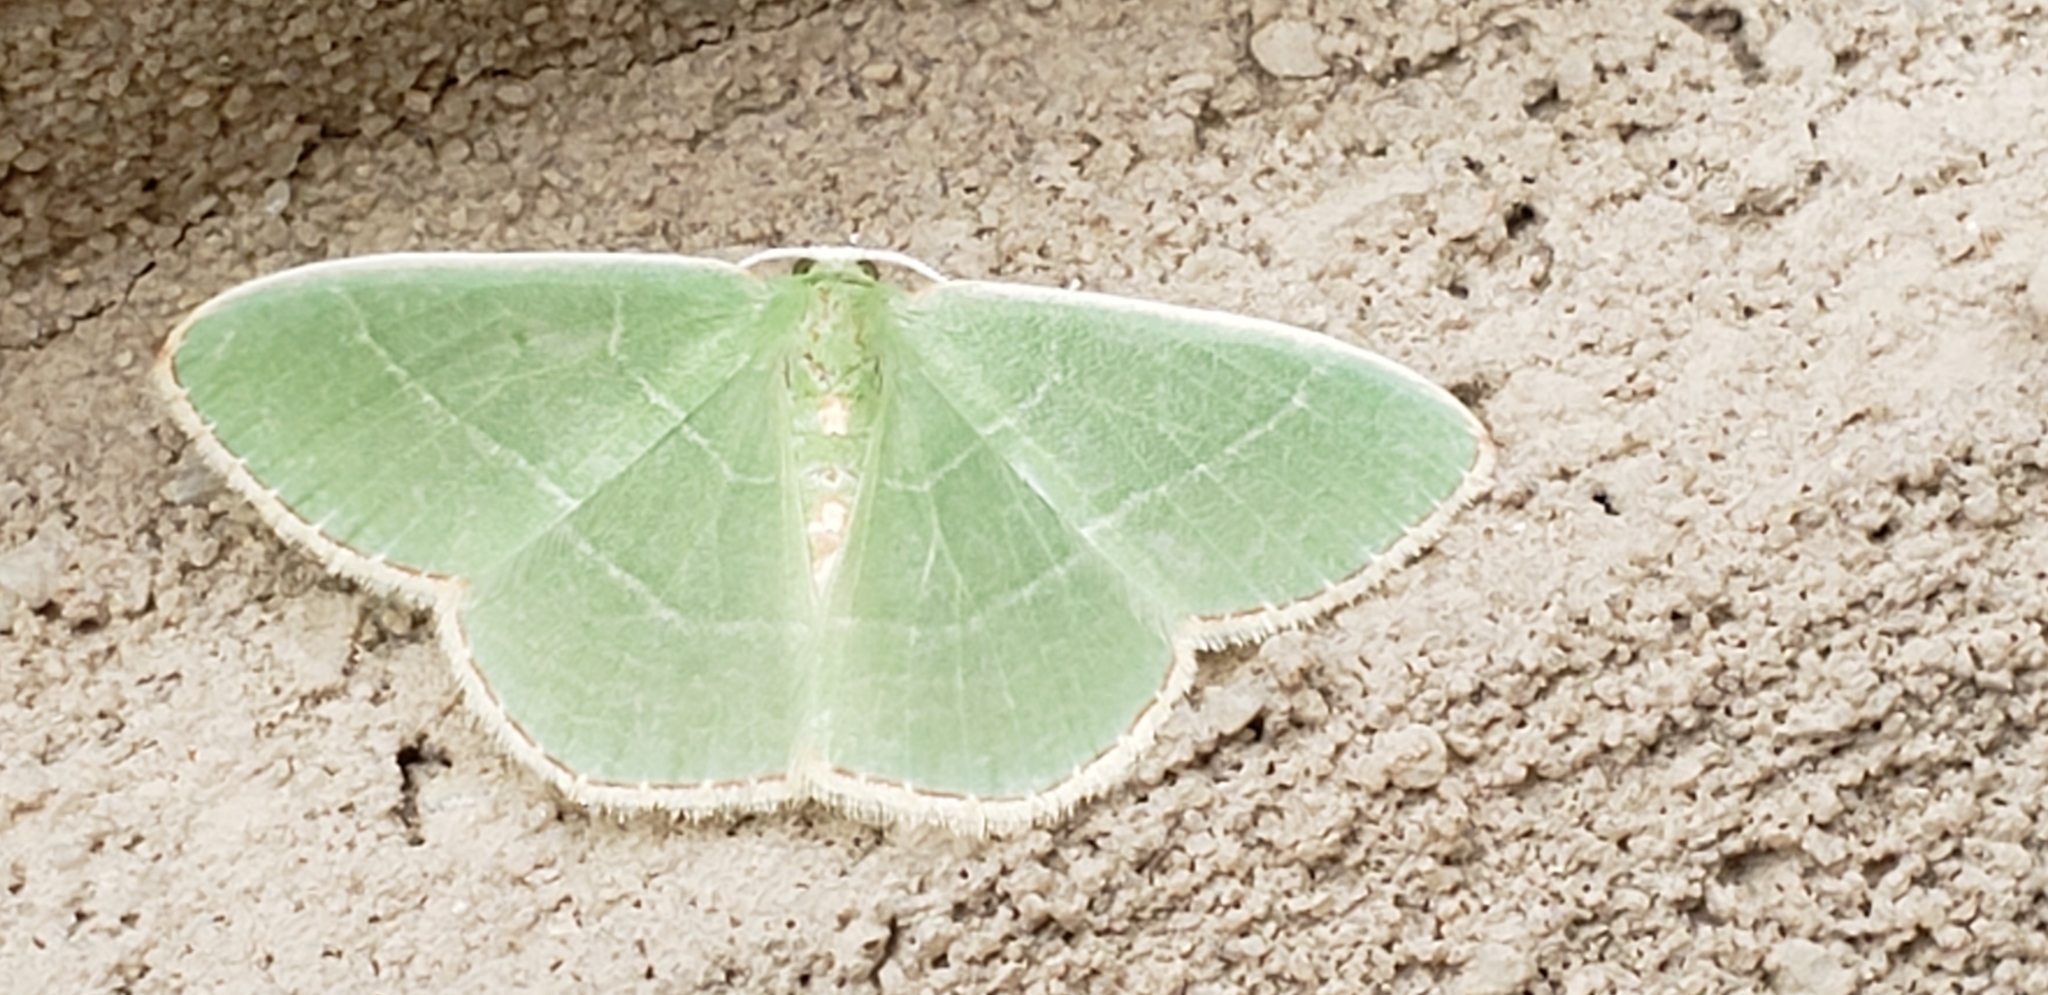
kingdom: Animalia
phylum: Arthropoda
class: Insecta
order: Lepidoptera
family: Geometridae
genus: Nemoria
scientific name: Nemoria mimosaria
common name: White-fringed emerald
